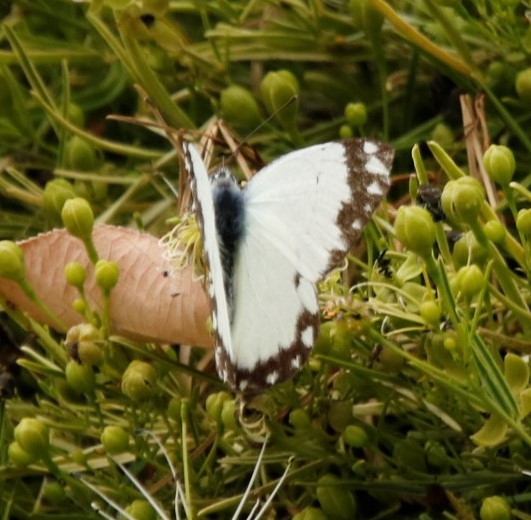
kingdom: Animalia
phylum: Arthropoda
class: Insecta
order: Lepidoptera
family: Pieridae
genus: Belenois
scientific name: Belenois creona
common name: African caper white
